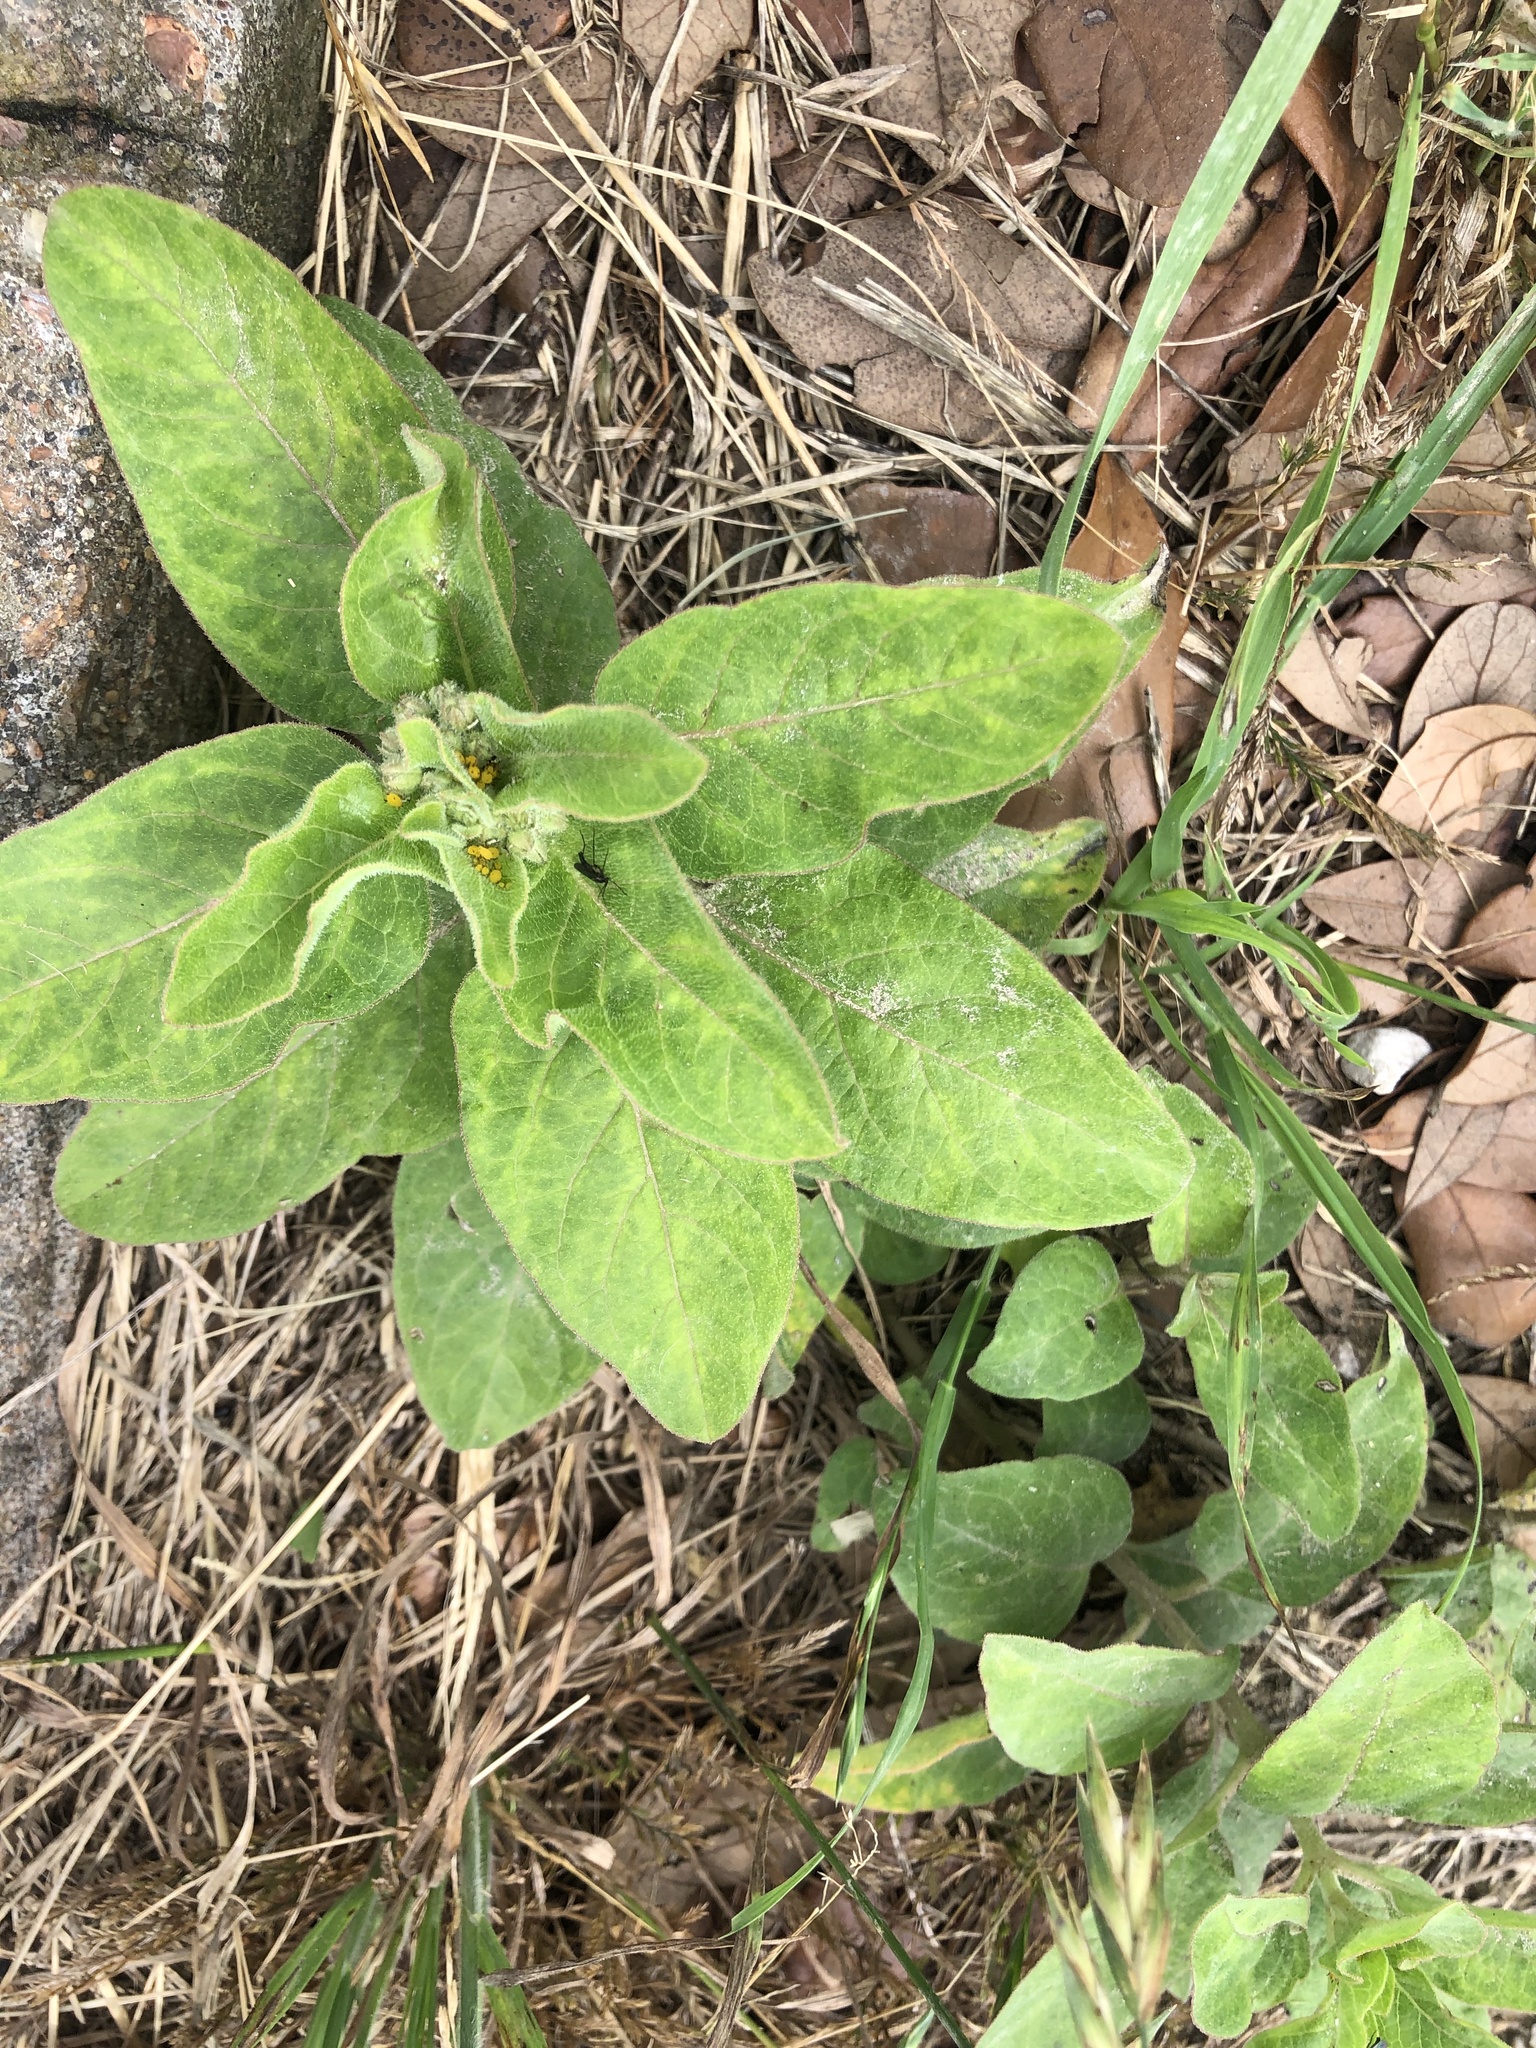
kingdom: Plantae
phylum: Tracheophyta
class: Magnoliopsida
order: Gentianales
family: Apocynaceae
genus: Asclepias
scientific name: Asclepias oenotheroides
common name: Zizotes milkweed
